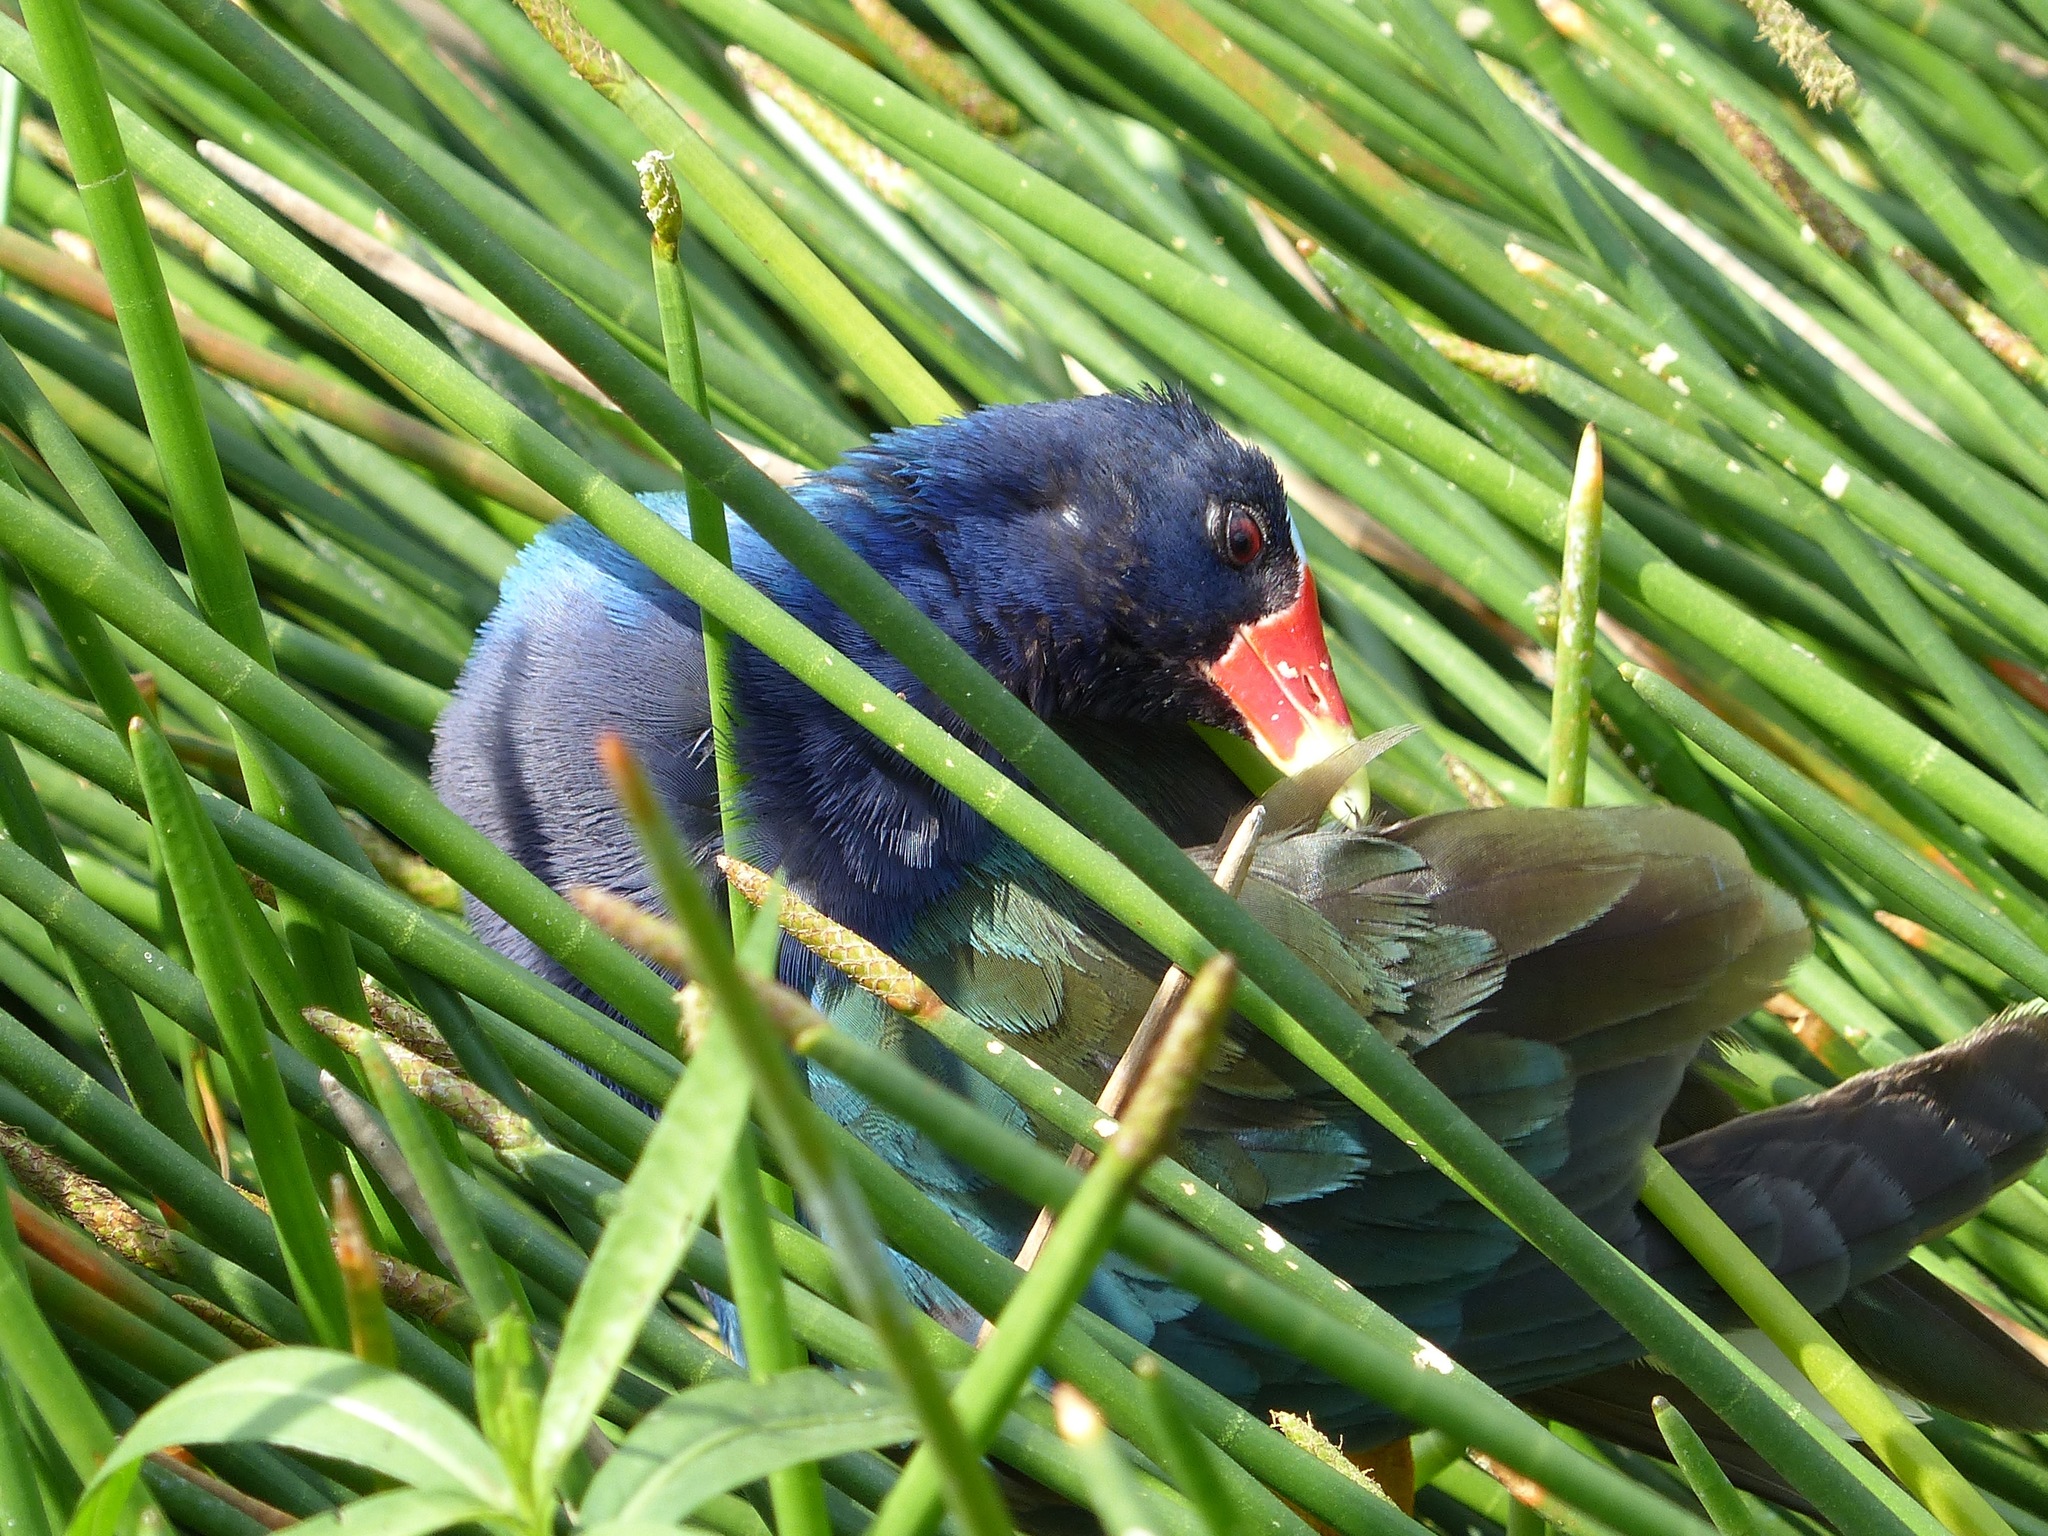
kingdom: Animalia
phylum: Chordata
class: Aves
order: Gruiformes
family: Rallidae
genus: Porphyrio
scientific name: Porphyrio martinica
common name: Purple gallinule
